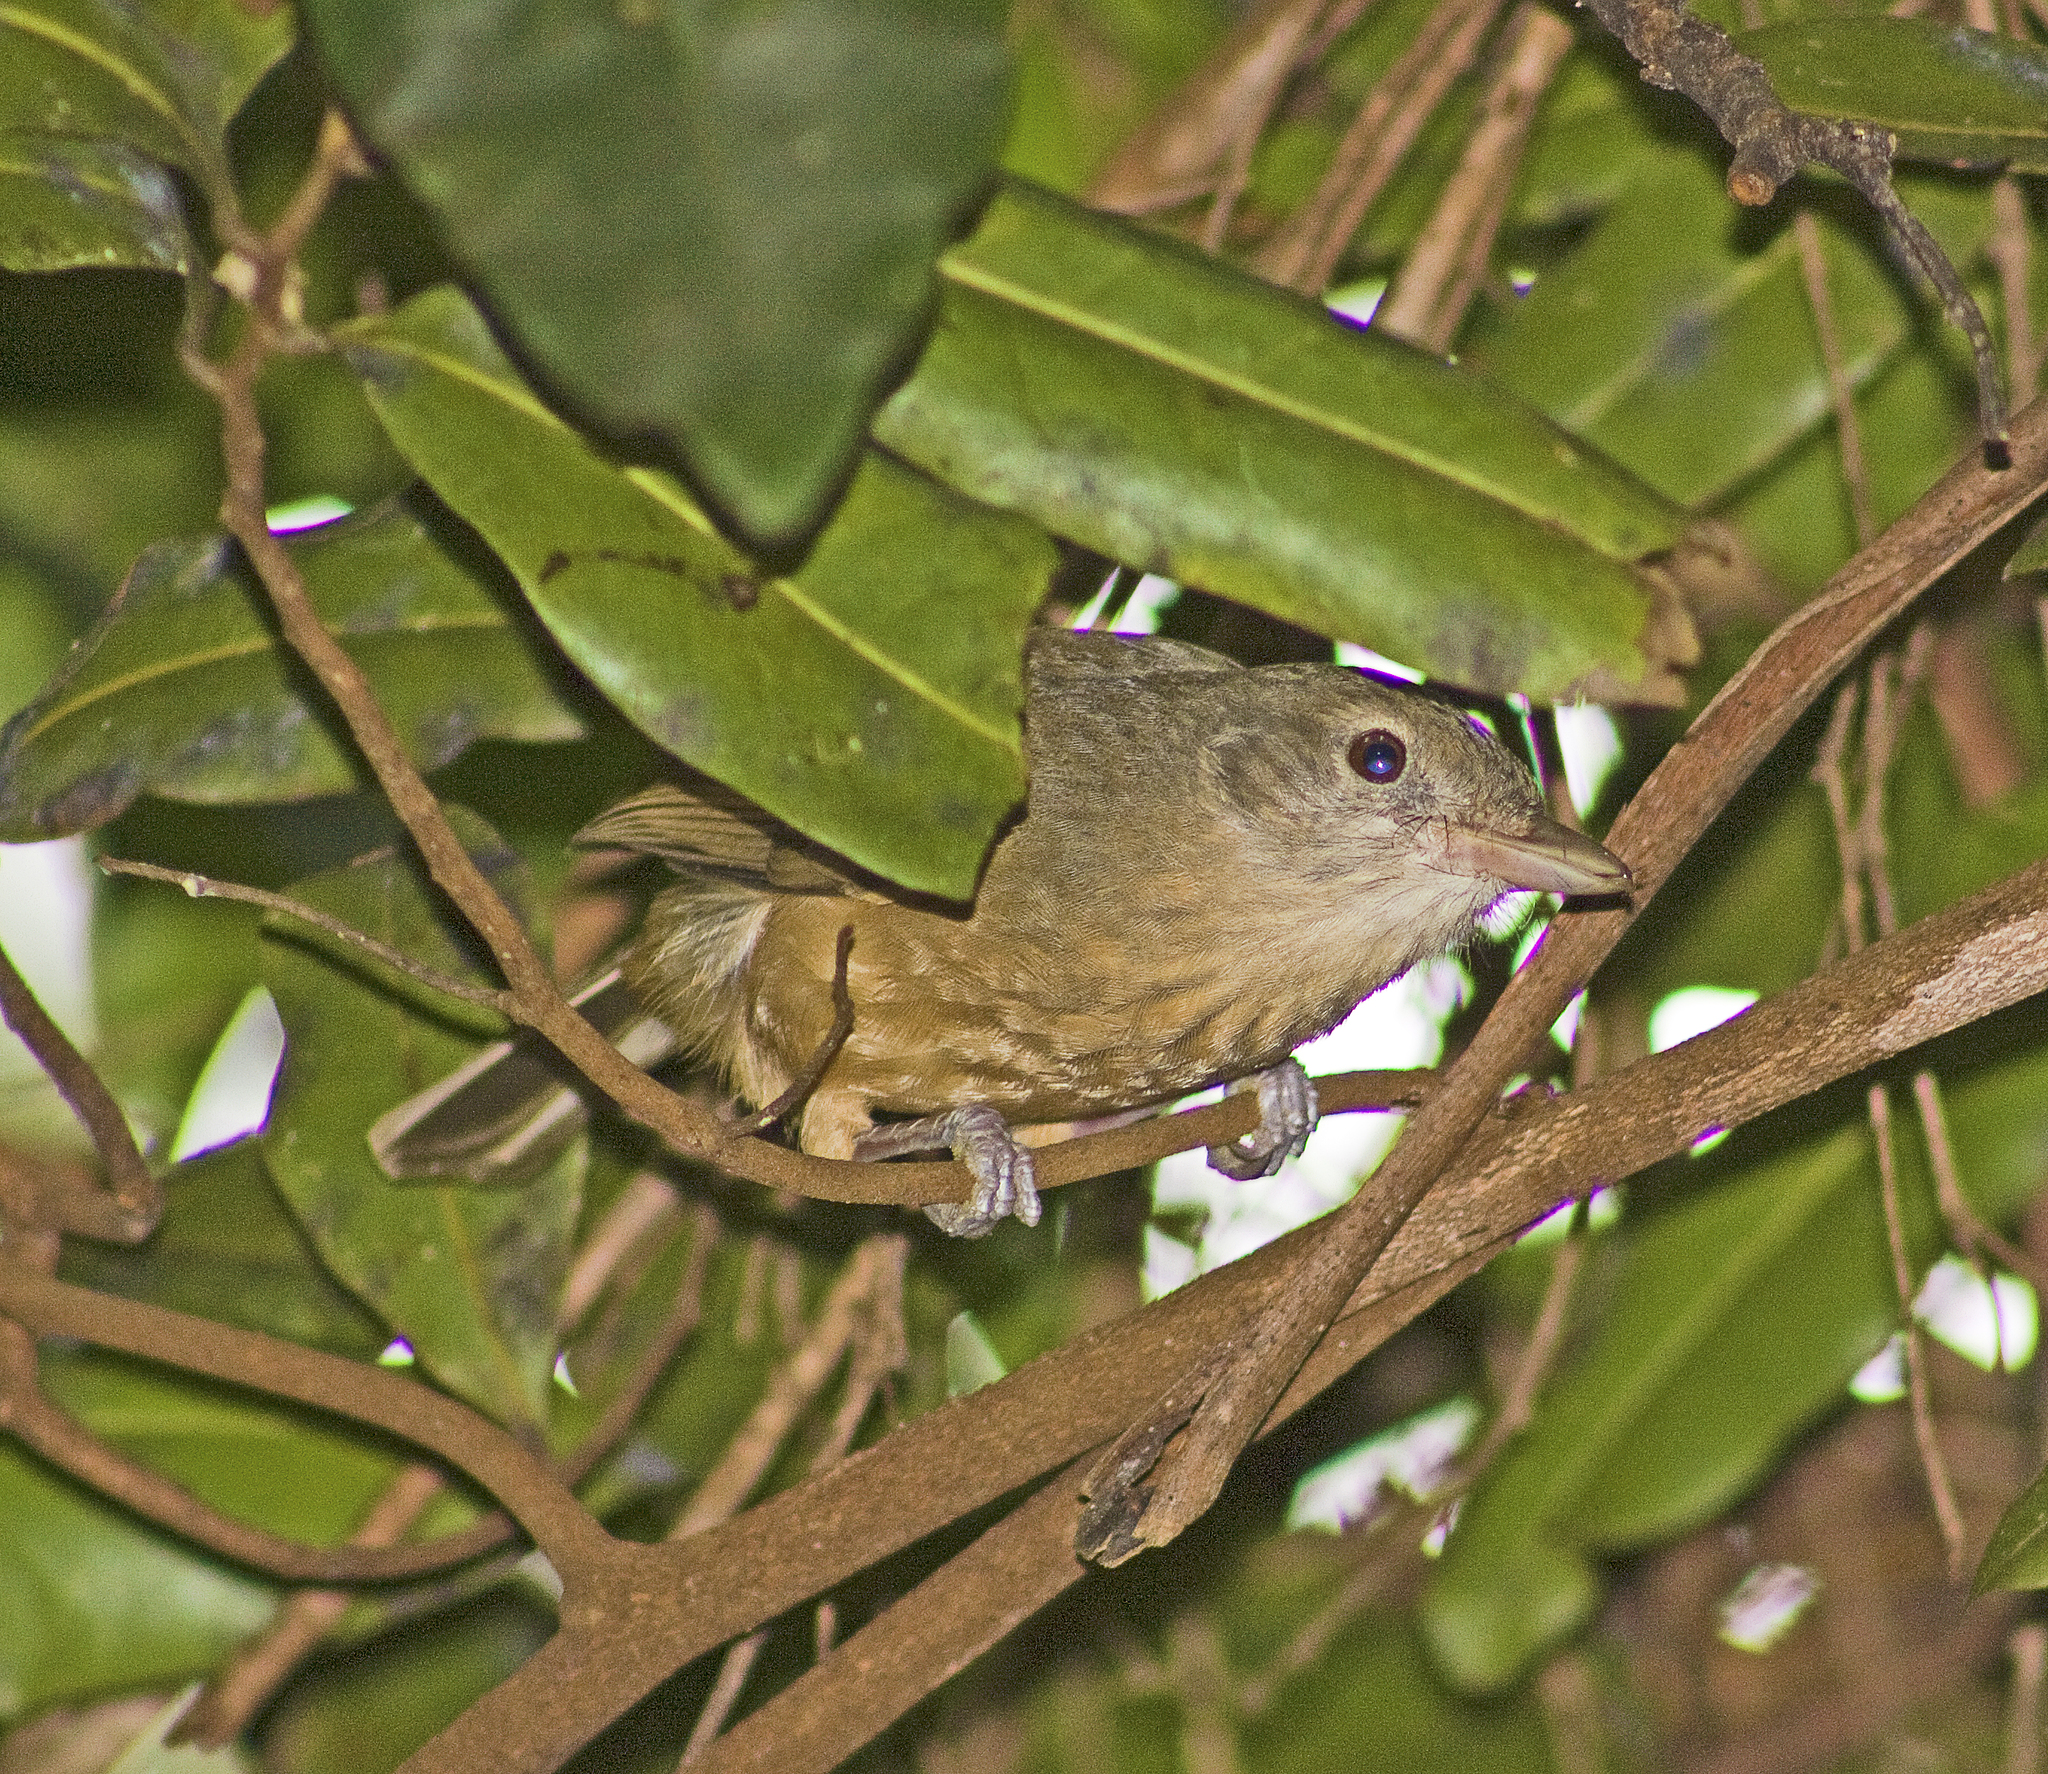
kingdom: Animalia
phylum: Chordata
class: Aves
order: Passeriformes
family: Pachycephalidae
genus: Colluricincla
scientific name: Colluricincla rufogaster
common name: Rufous shrikethrush
